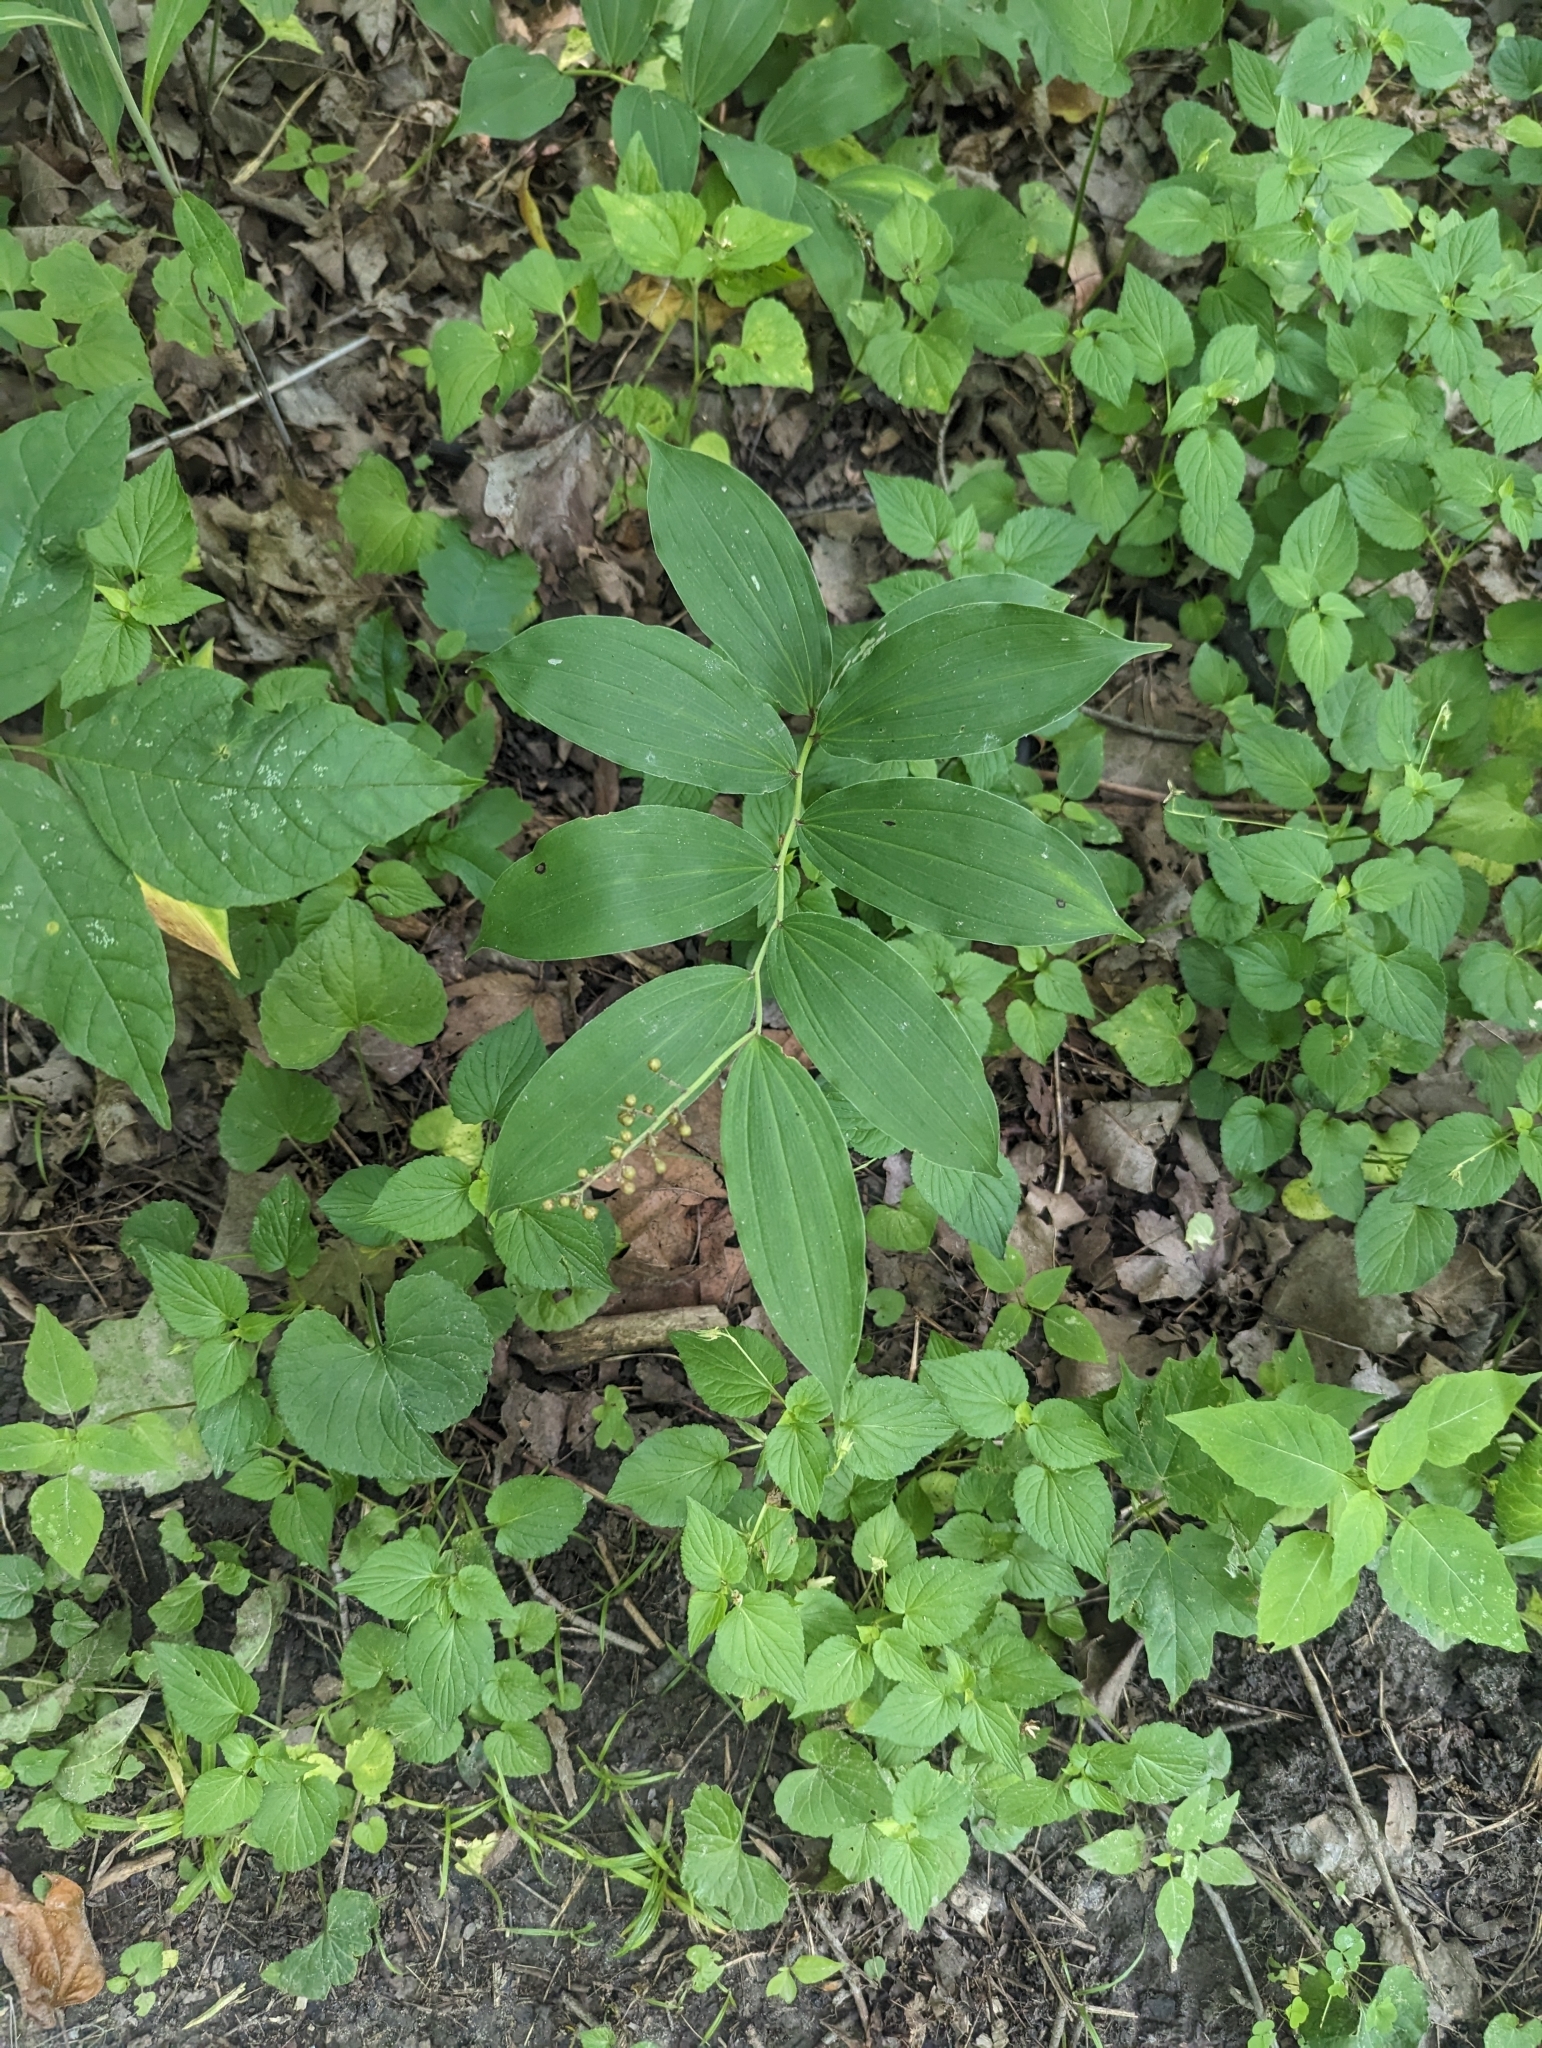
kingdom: Plantae
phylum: Tracheophyta
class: Liliopsida
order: Asparagales
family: Asparagaceae
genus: Maianthemum
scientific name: Maianthemum racemosum
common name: False spikenard
